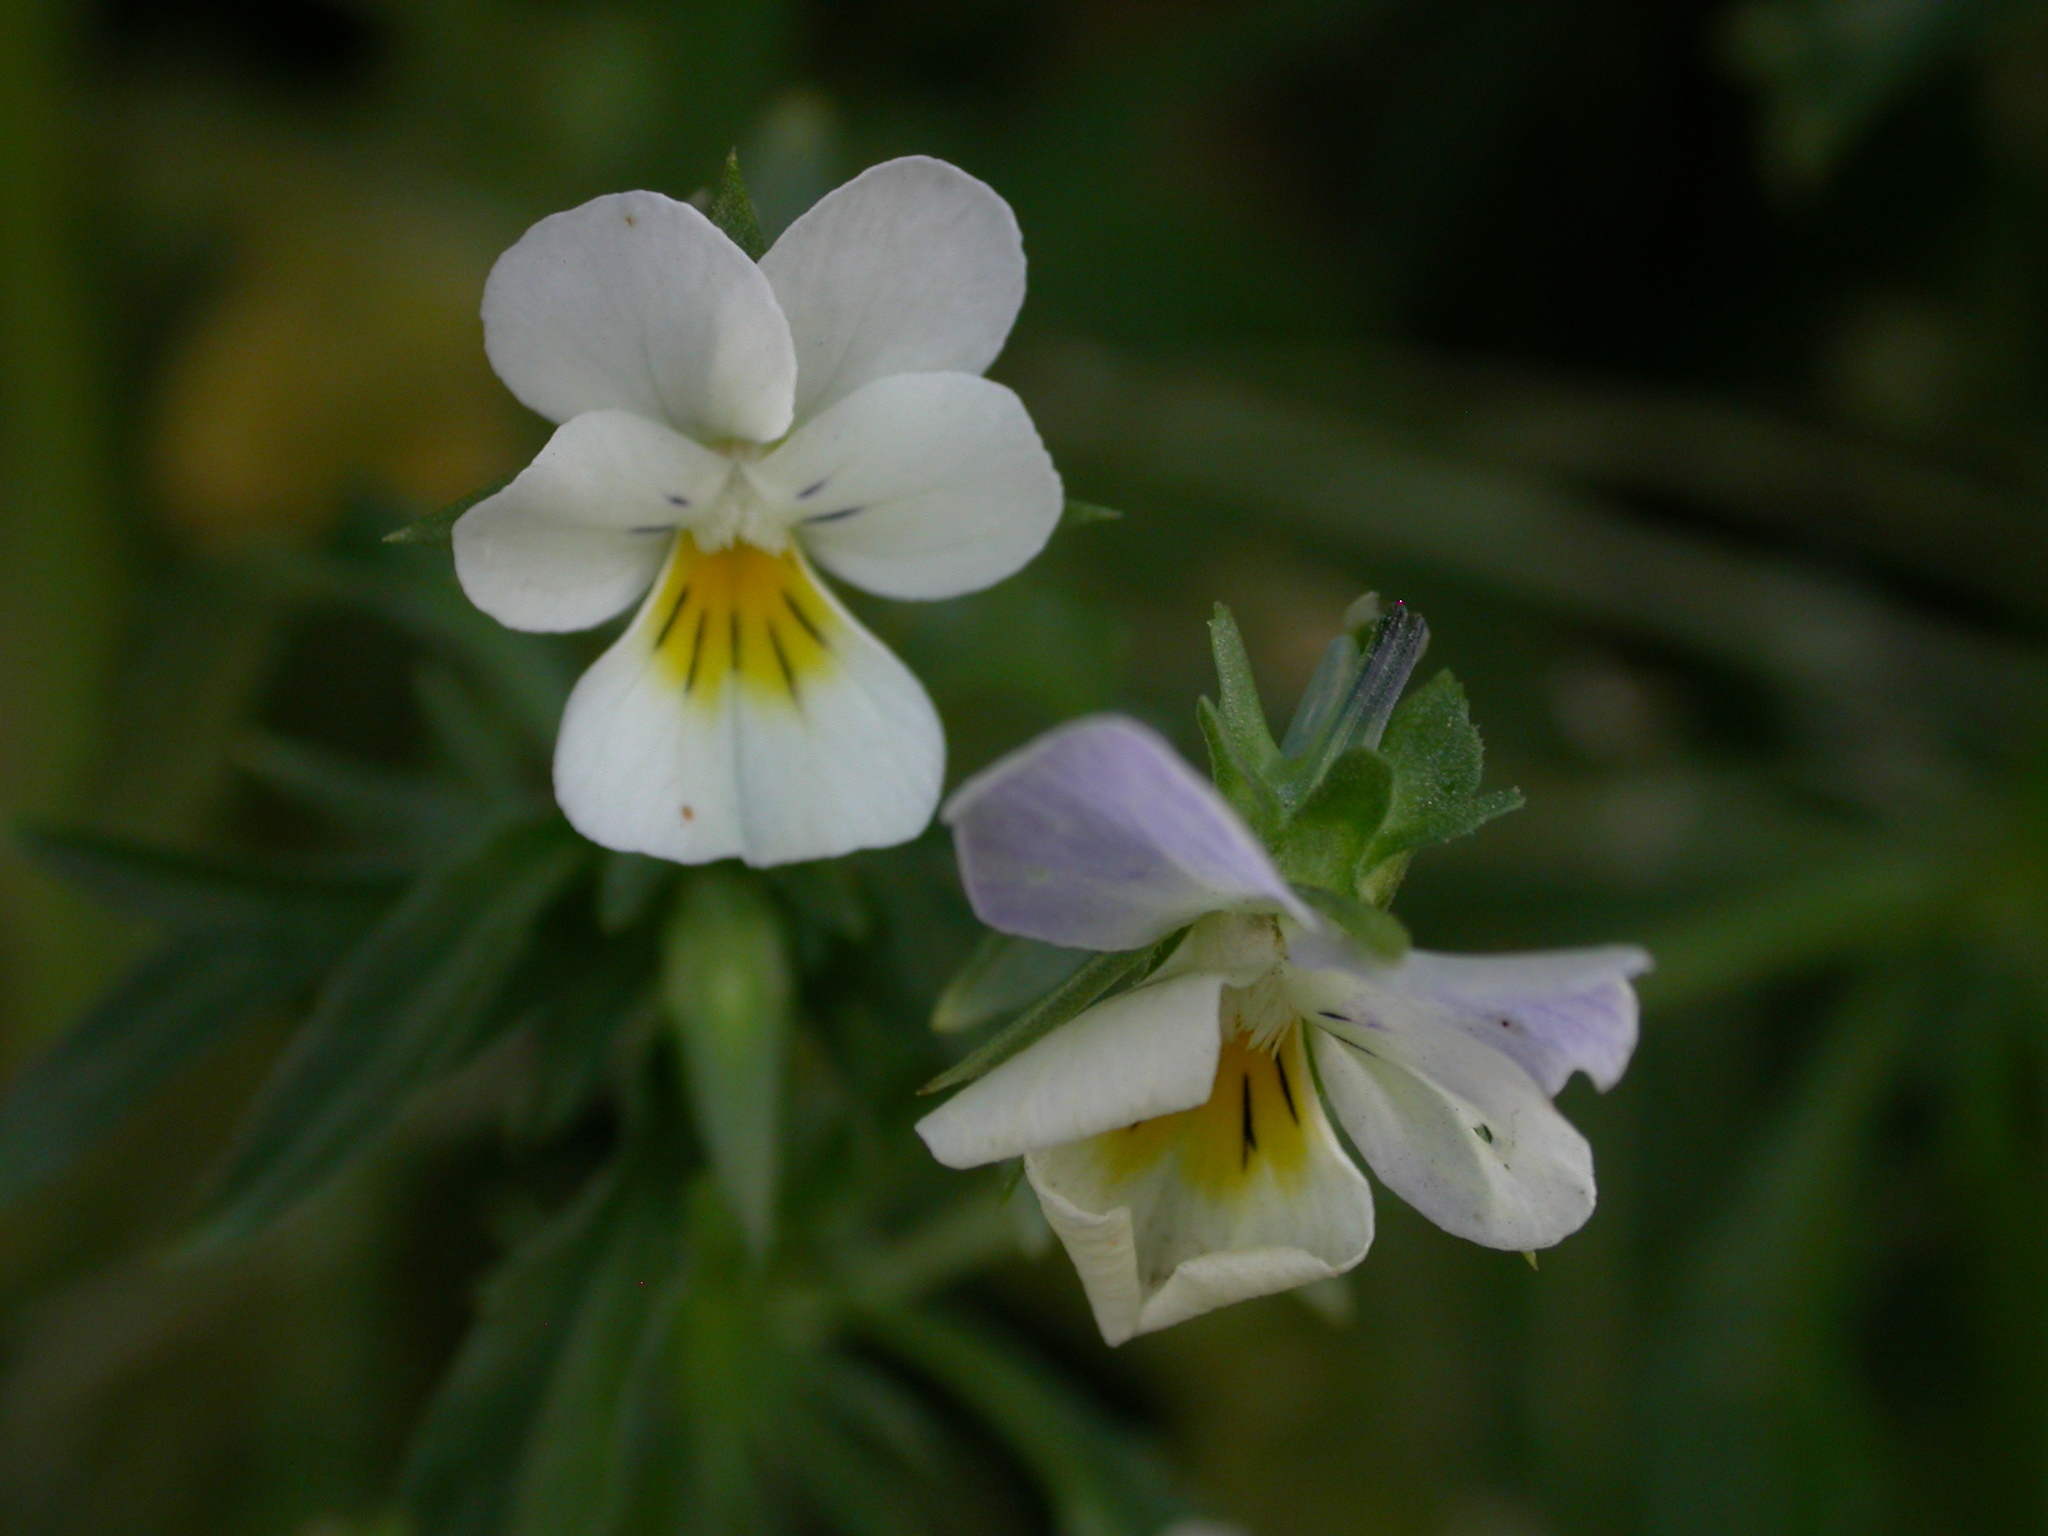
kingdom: Plantae
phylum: Tracheophyta
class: Magnoliopsida
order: Malpighiales
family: Violaceae
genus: Viola
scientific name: Viola arvensis
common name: Field pansy
